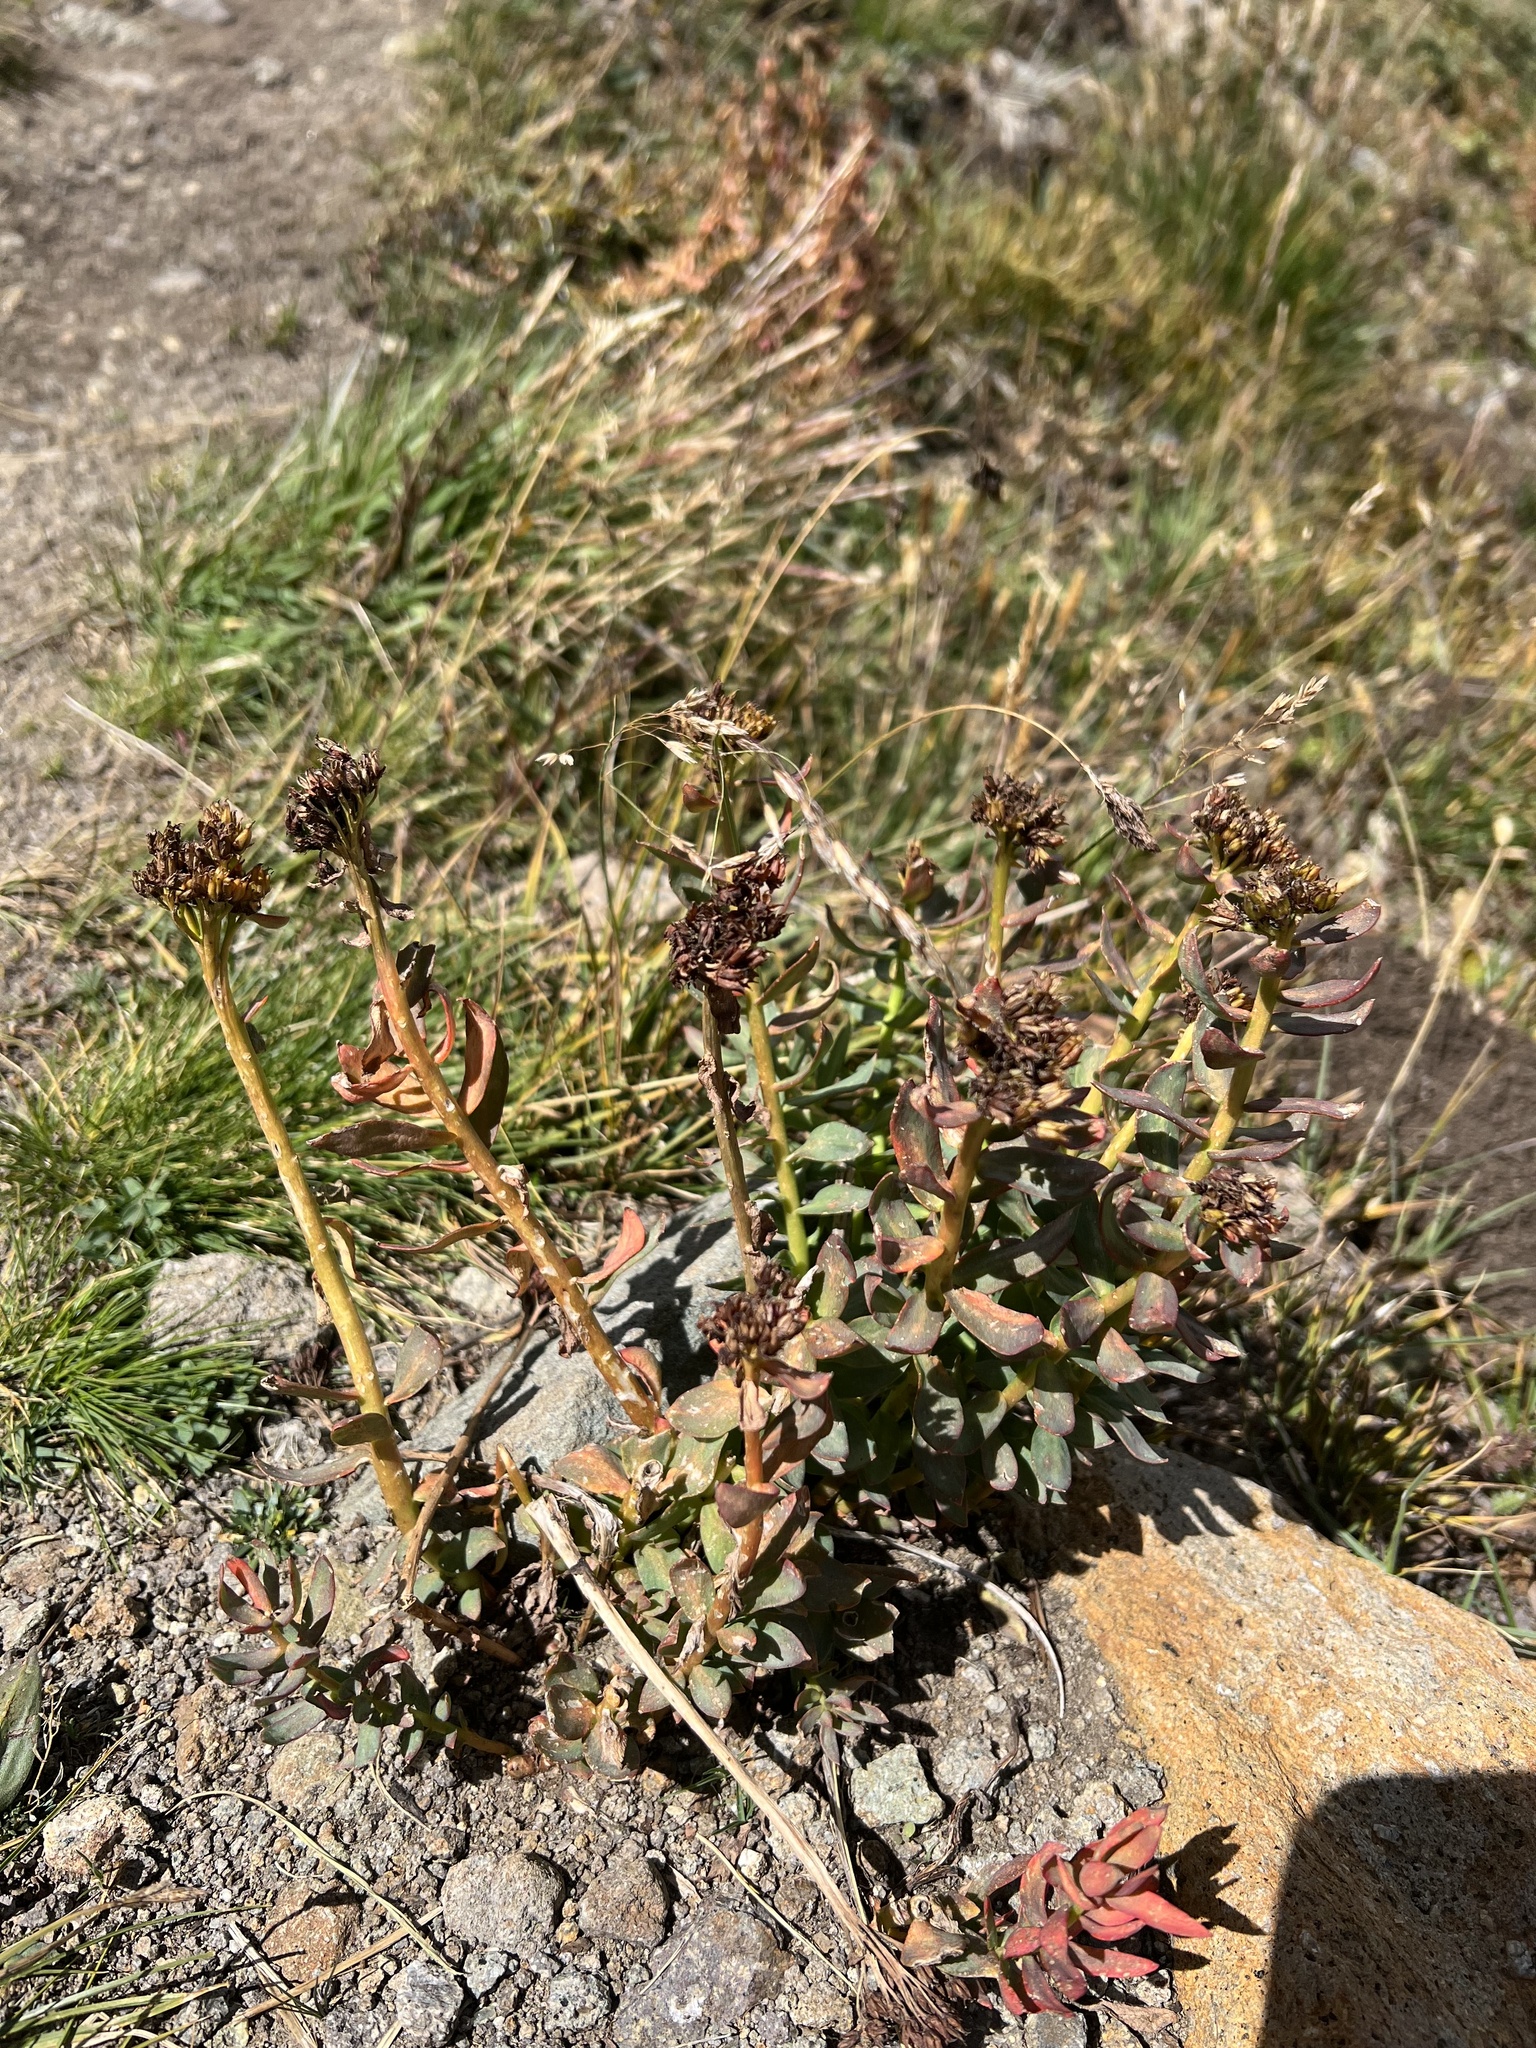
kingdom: Plantae
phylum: Tracheophyta
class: Magnoliopsida
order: Saxifragales
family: Crassulaceae
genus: Rhodiola
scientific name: Rhodiola integrifolia
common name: Western roseroot
